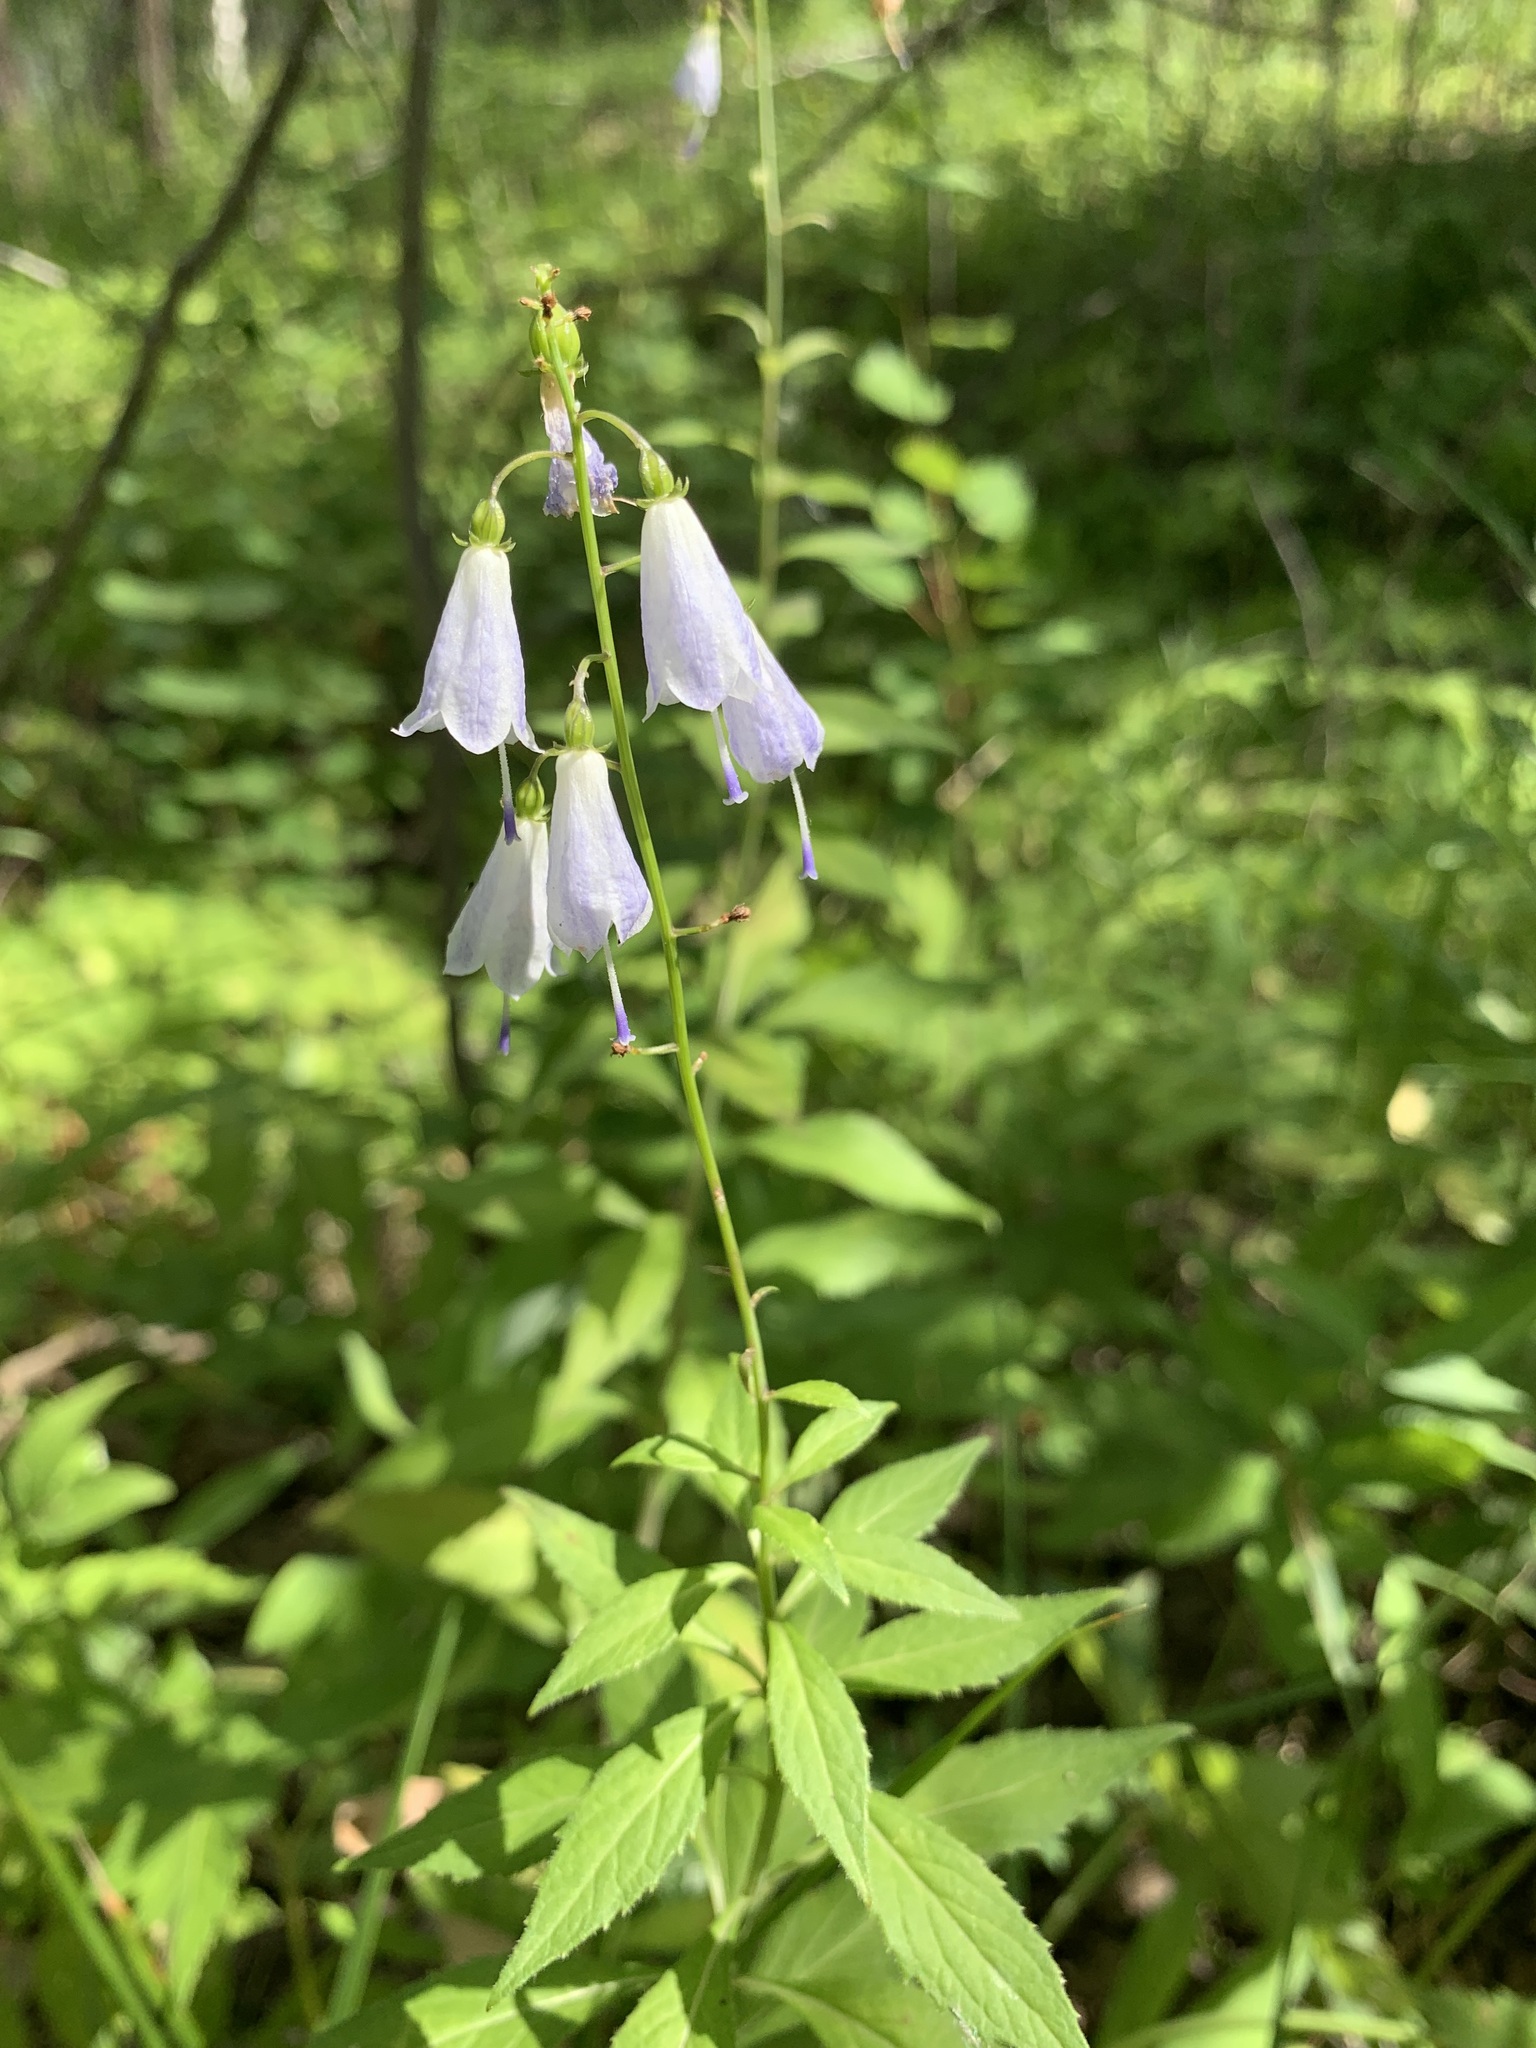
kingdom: Plantae
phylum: Tracheophyta
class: Magnoliopsida
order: Asterales
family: Campanulaceae
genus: Adenophora
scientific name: Adenophora liliifolia
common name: Lilyleaf ladybells
